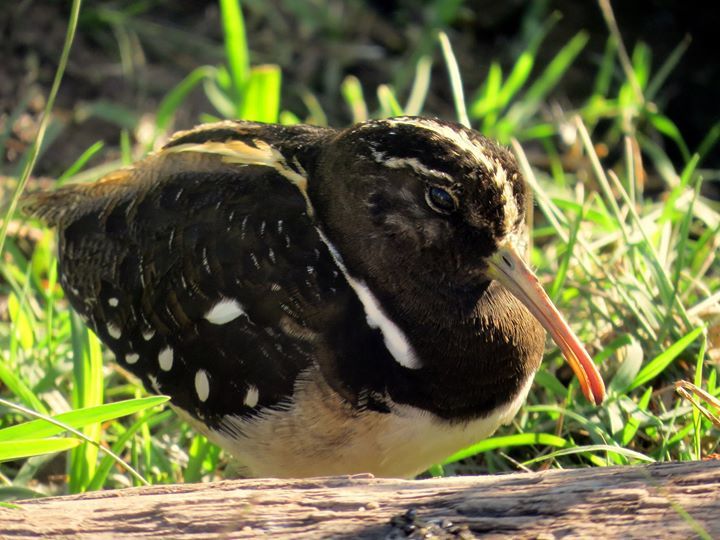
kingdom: Animalia
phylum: Chordata
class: Aves
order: Charadriiformes
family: Rostratulidae
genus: Nycticryphes
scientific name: Nycticryphes semicollaris
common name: South american painted-snipe
